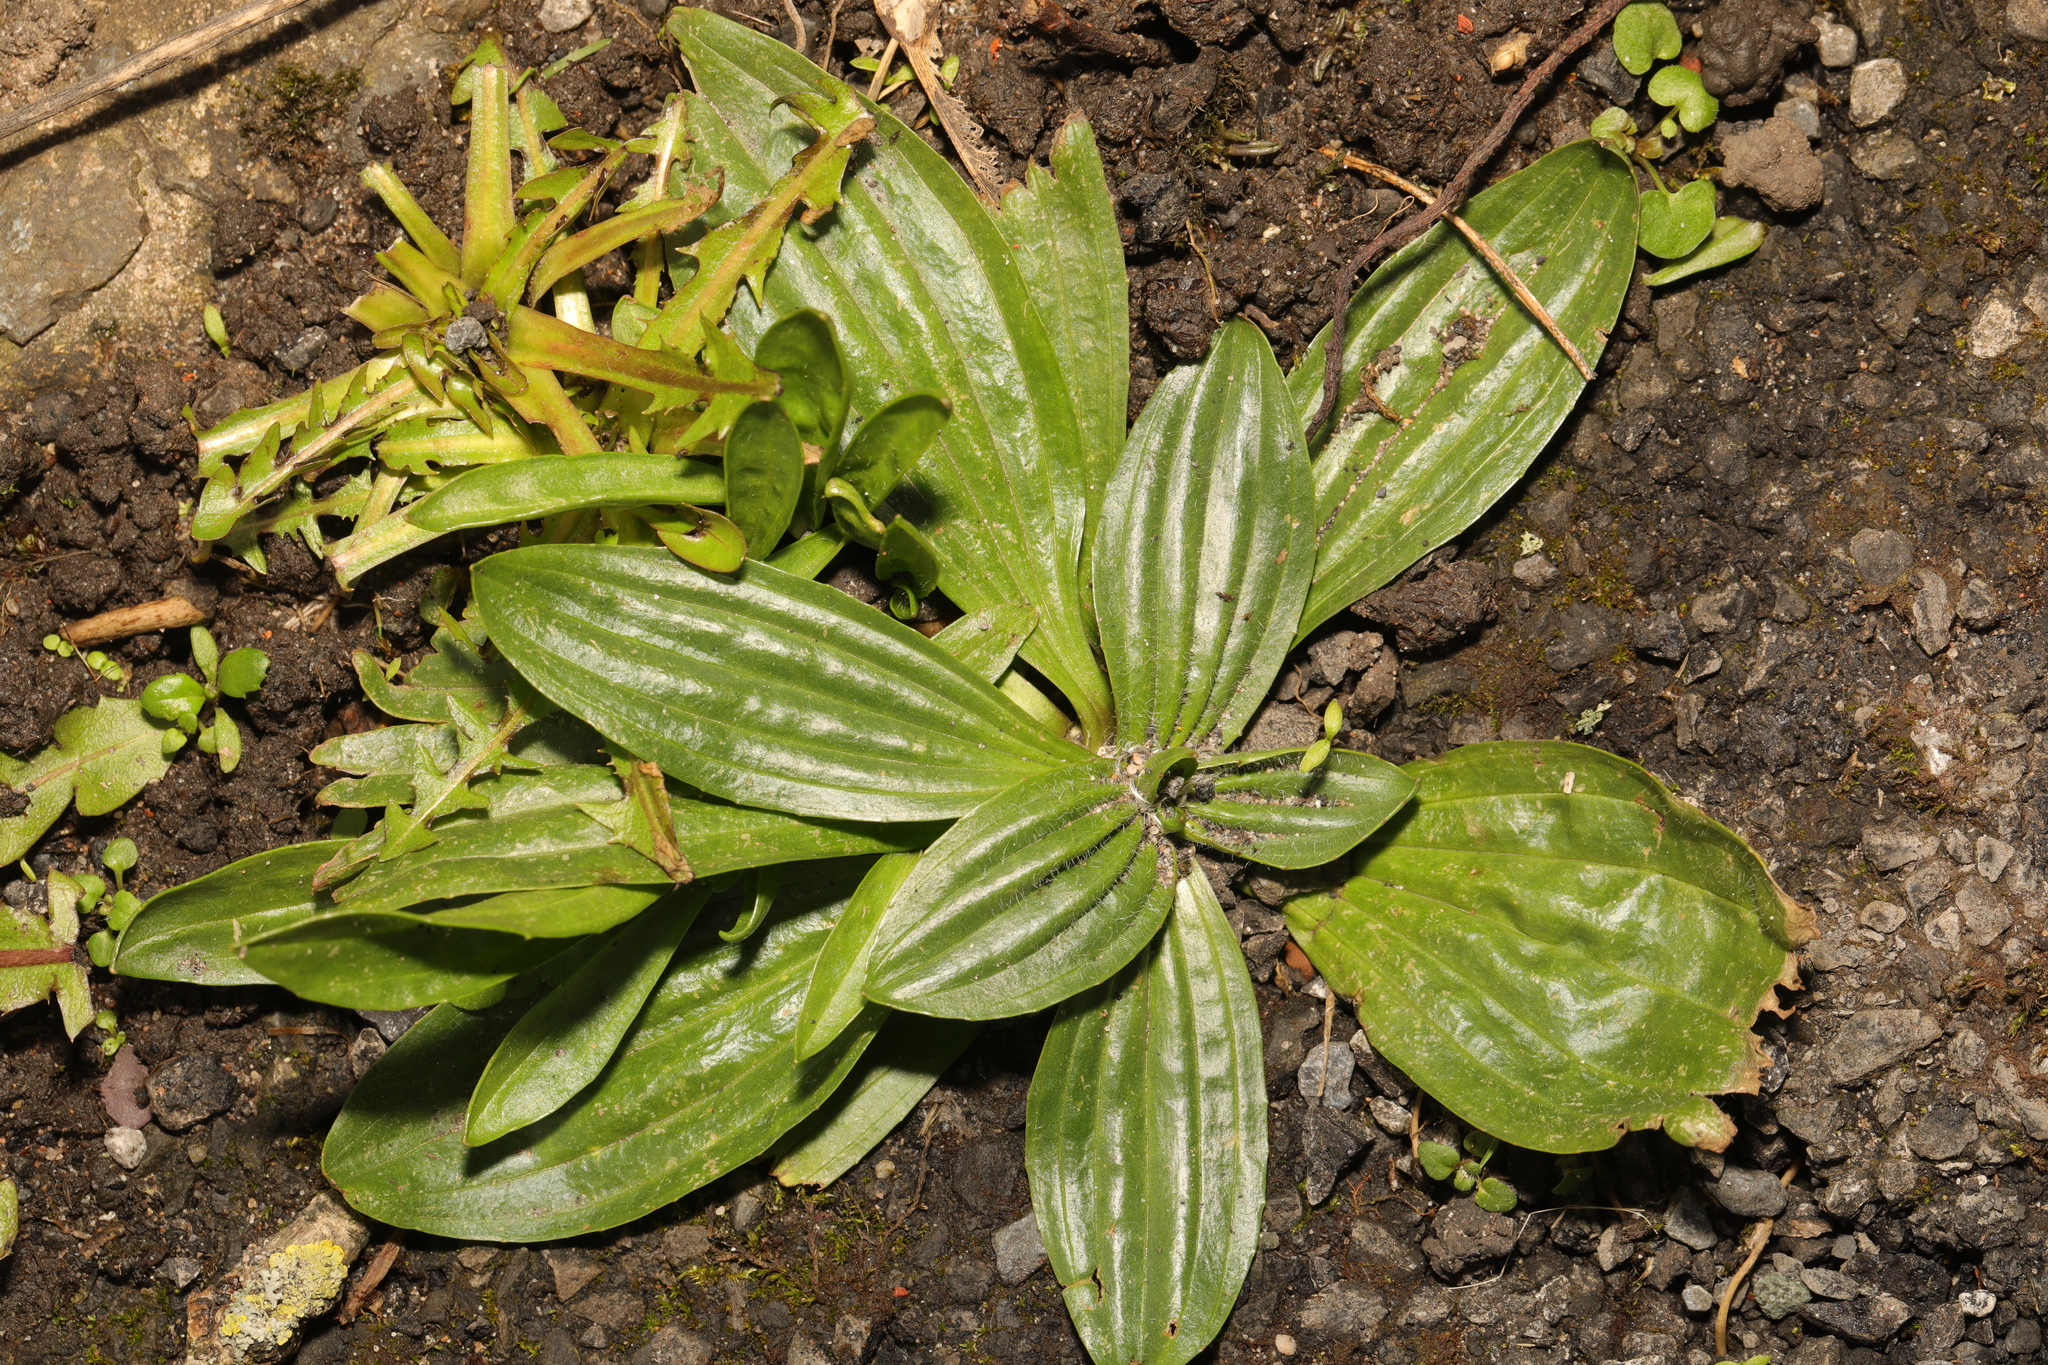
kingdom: Plantae
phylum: Tracheophyta
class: Magnoliopsida
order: Lamiales
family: Plantaginaceae
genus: Plantago
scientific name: Plantago media
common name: Hoary plantain
